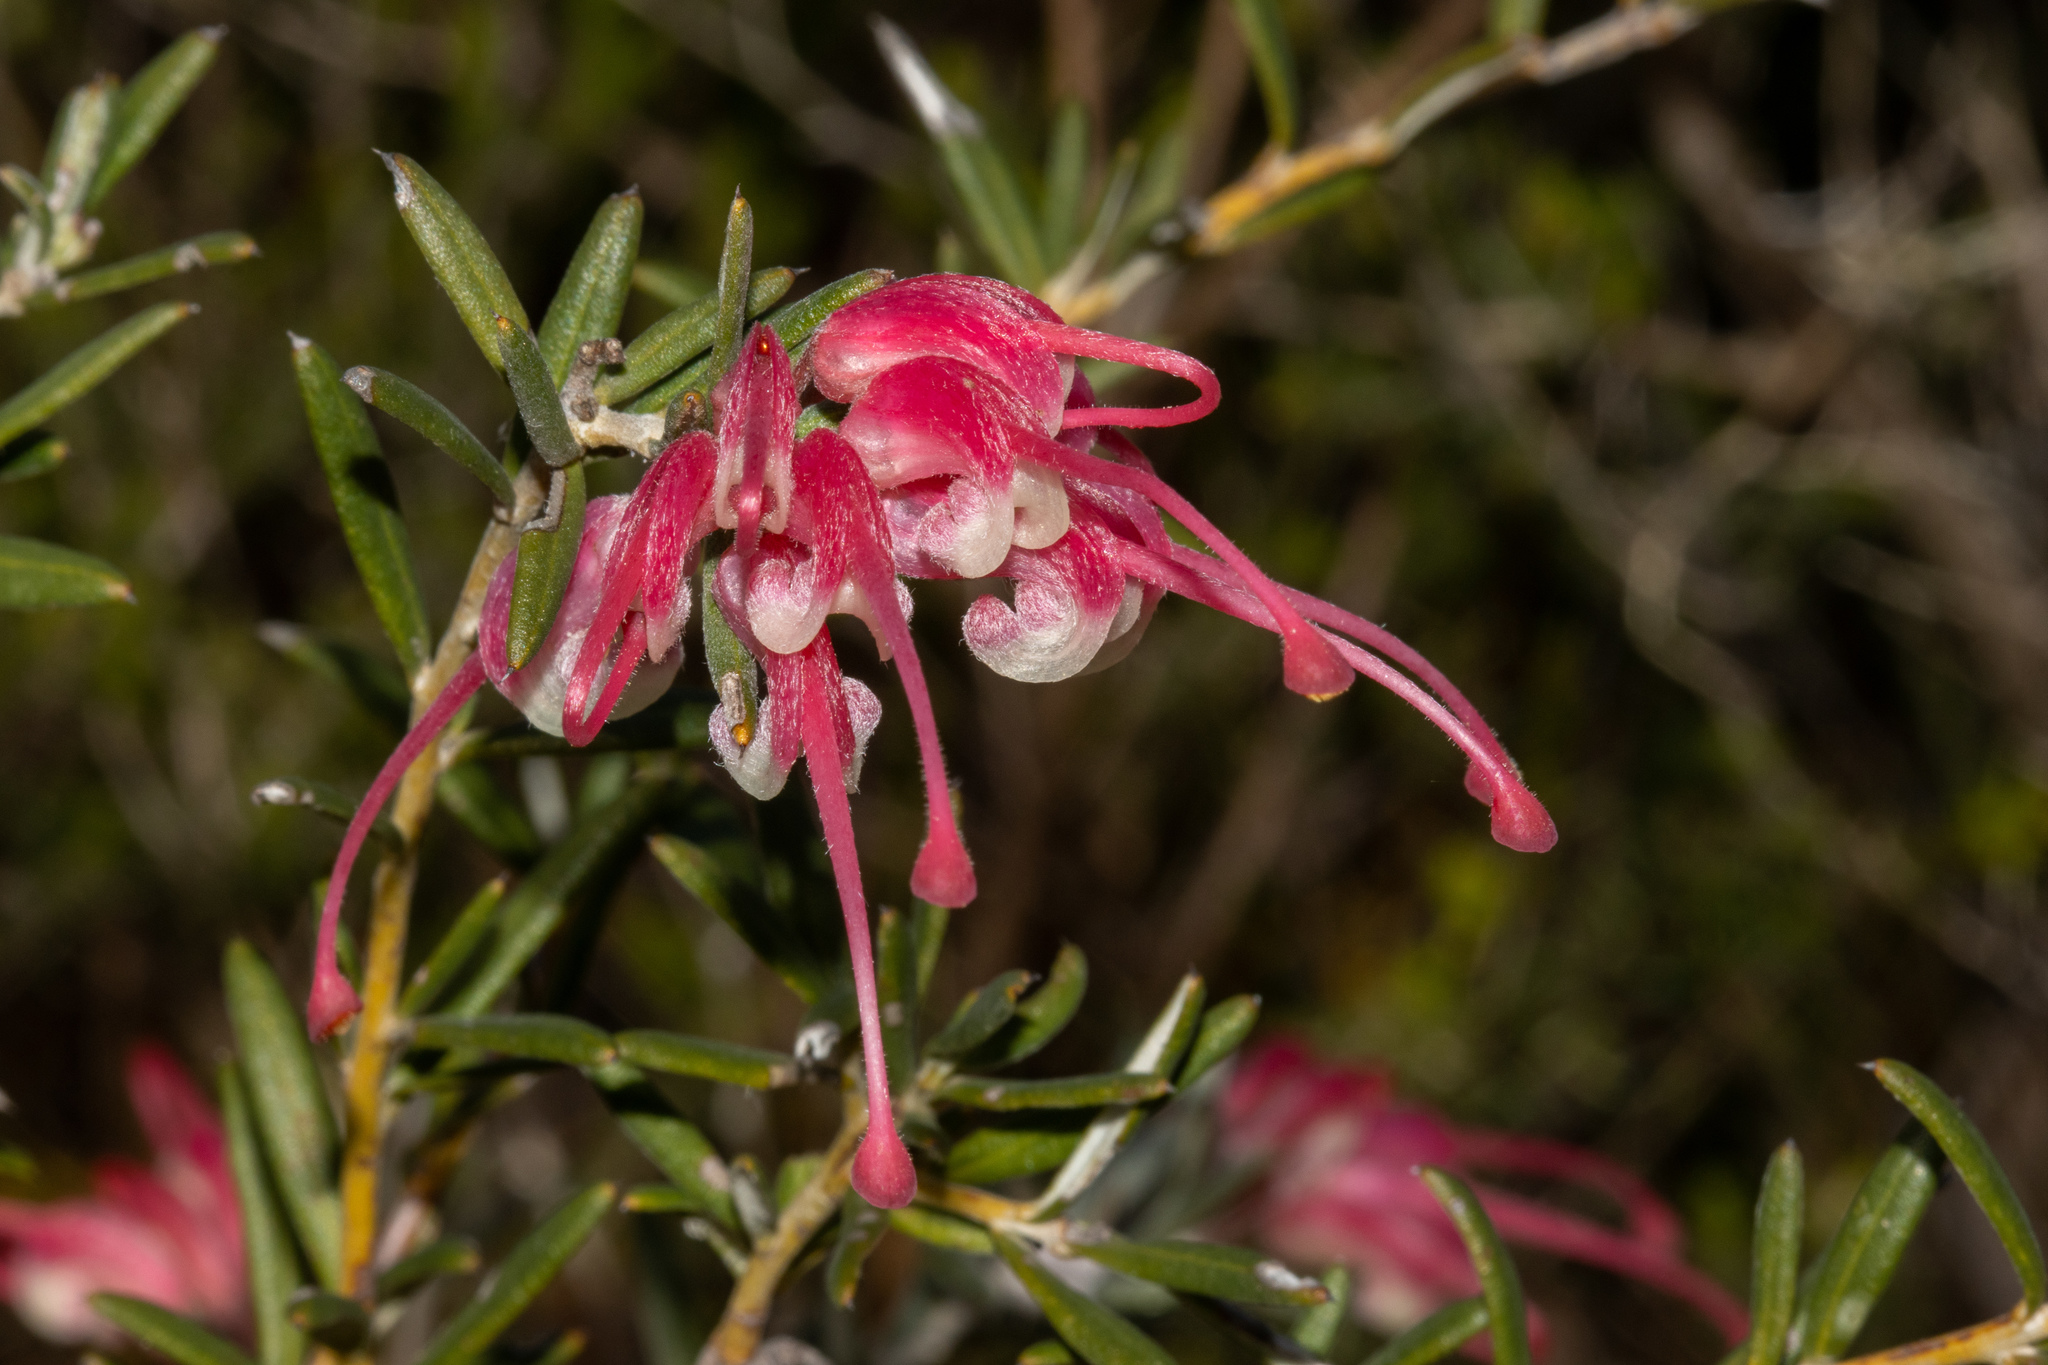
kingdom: Plantae
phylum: Tracheophyta
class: Magnoliopsida
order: Proteales
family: Proteaceae
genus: Grevillea
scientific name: Grevillea lavandulacea
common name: Lavender grevillea
